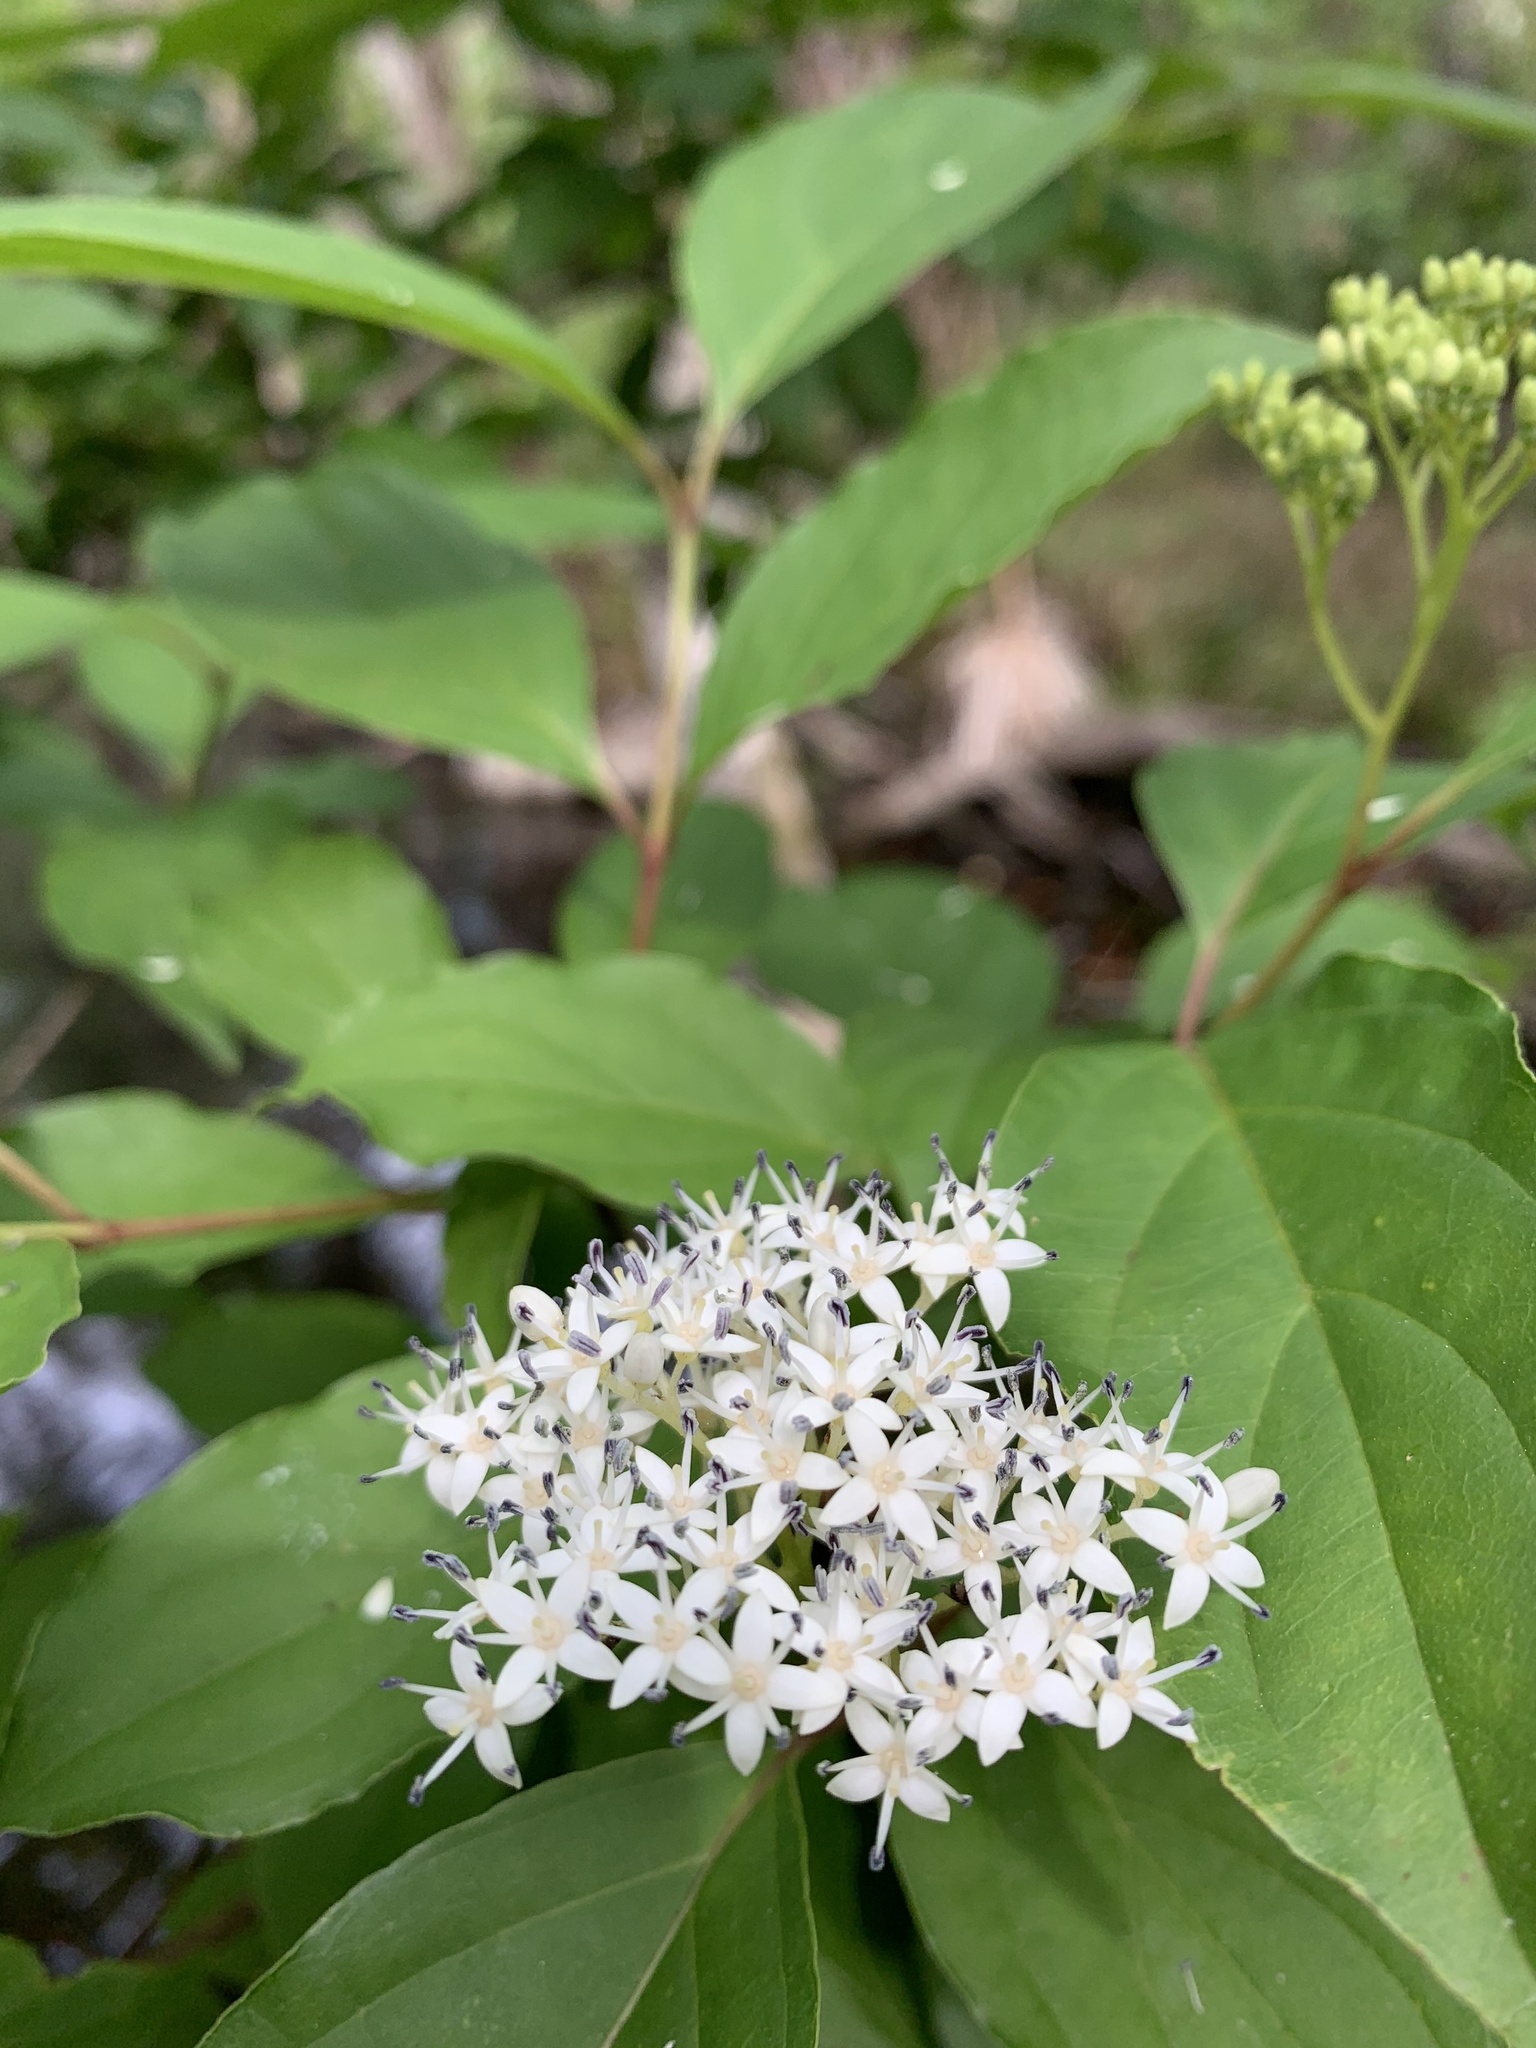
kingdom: Plantae
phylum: Tracheophyta
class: Magnoliopsida
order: Cornales
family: Cornaceae
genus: Cornus
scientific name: Cornus foemina
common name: Swamp dogwood
